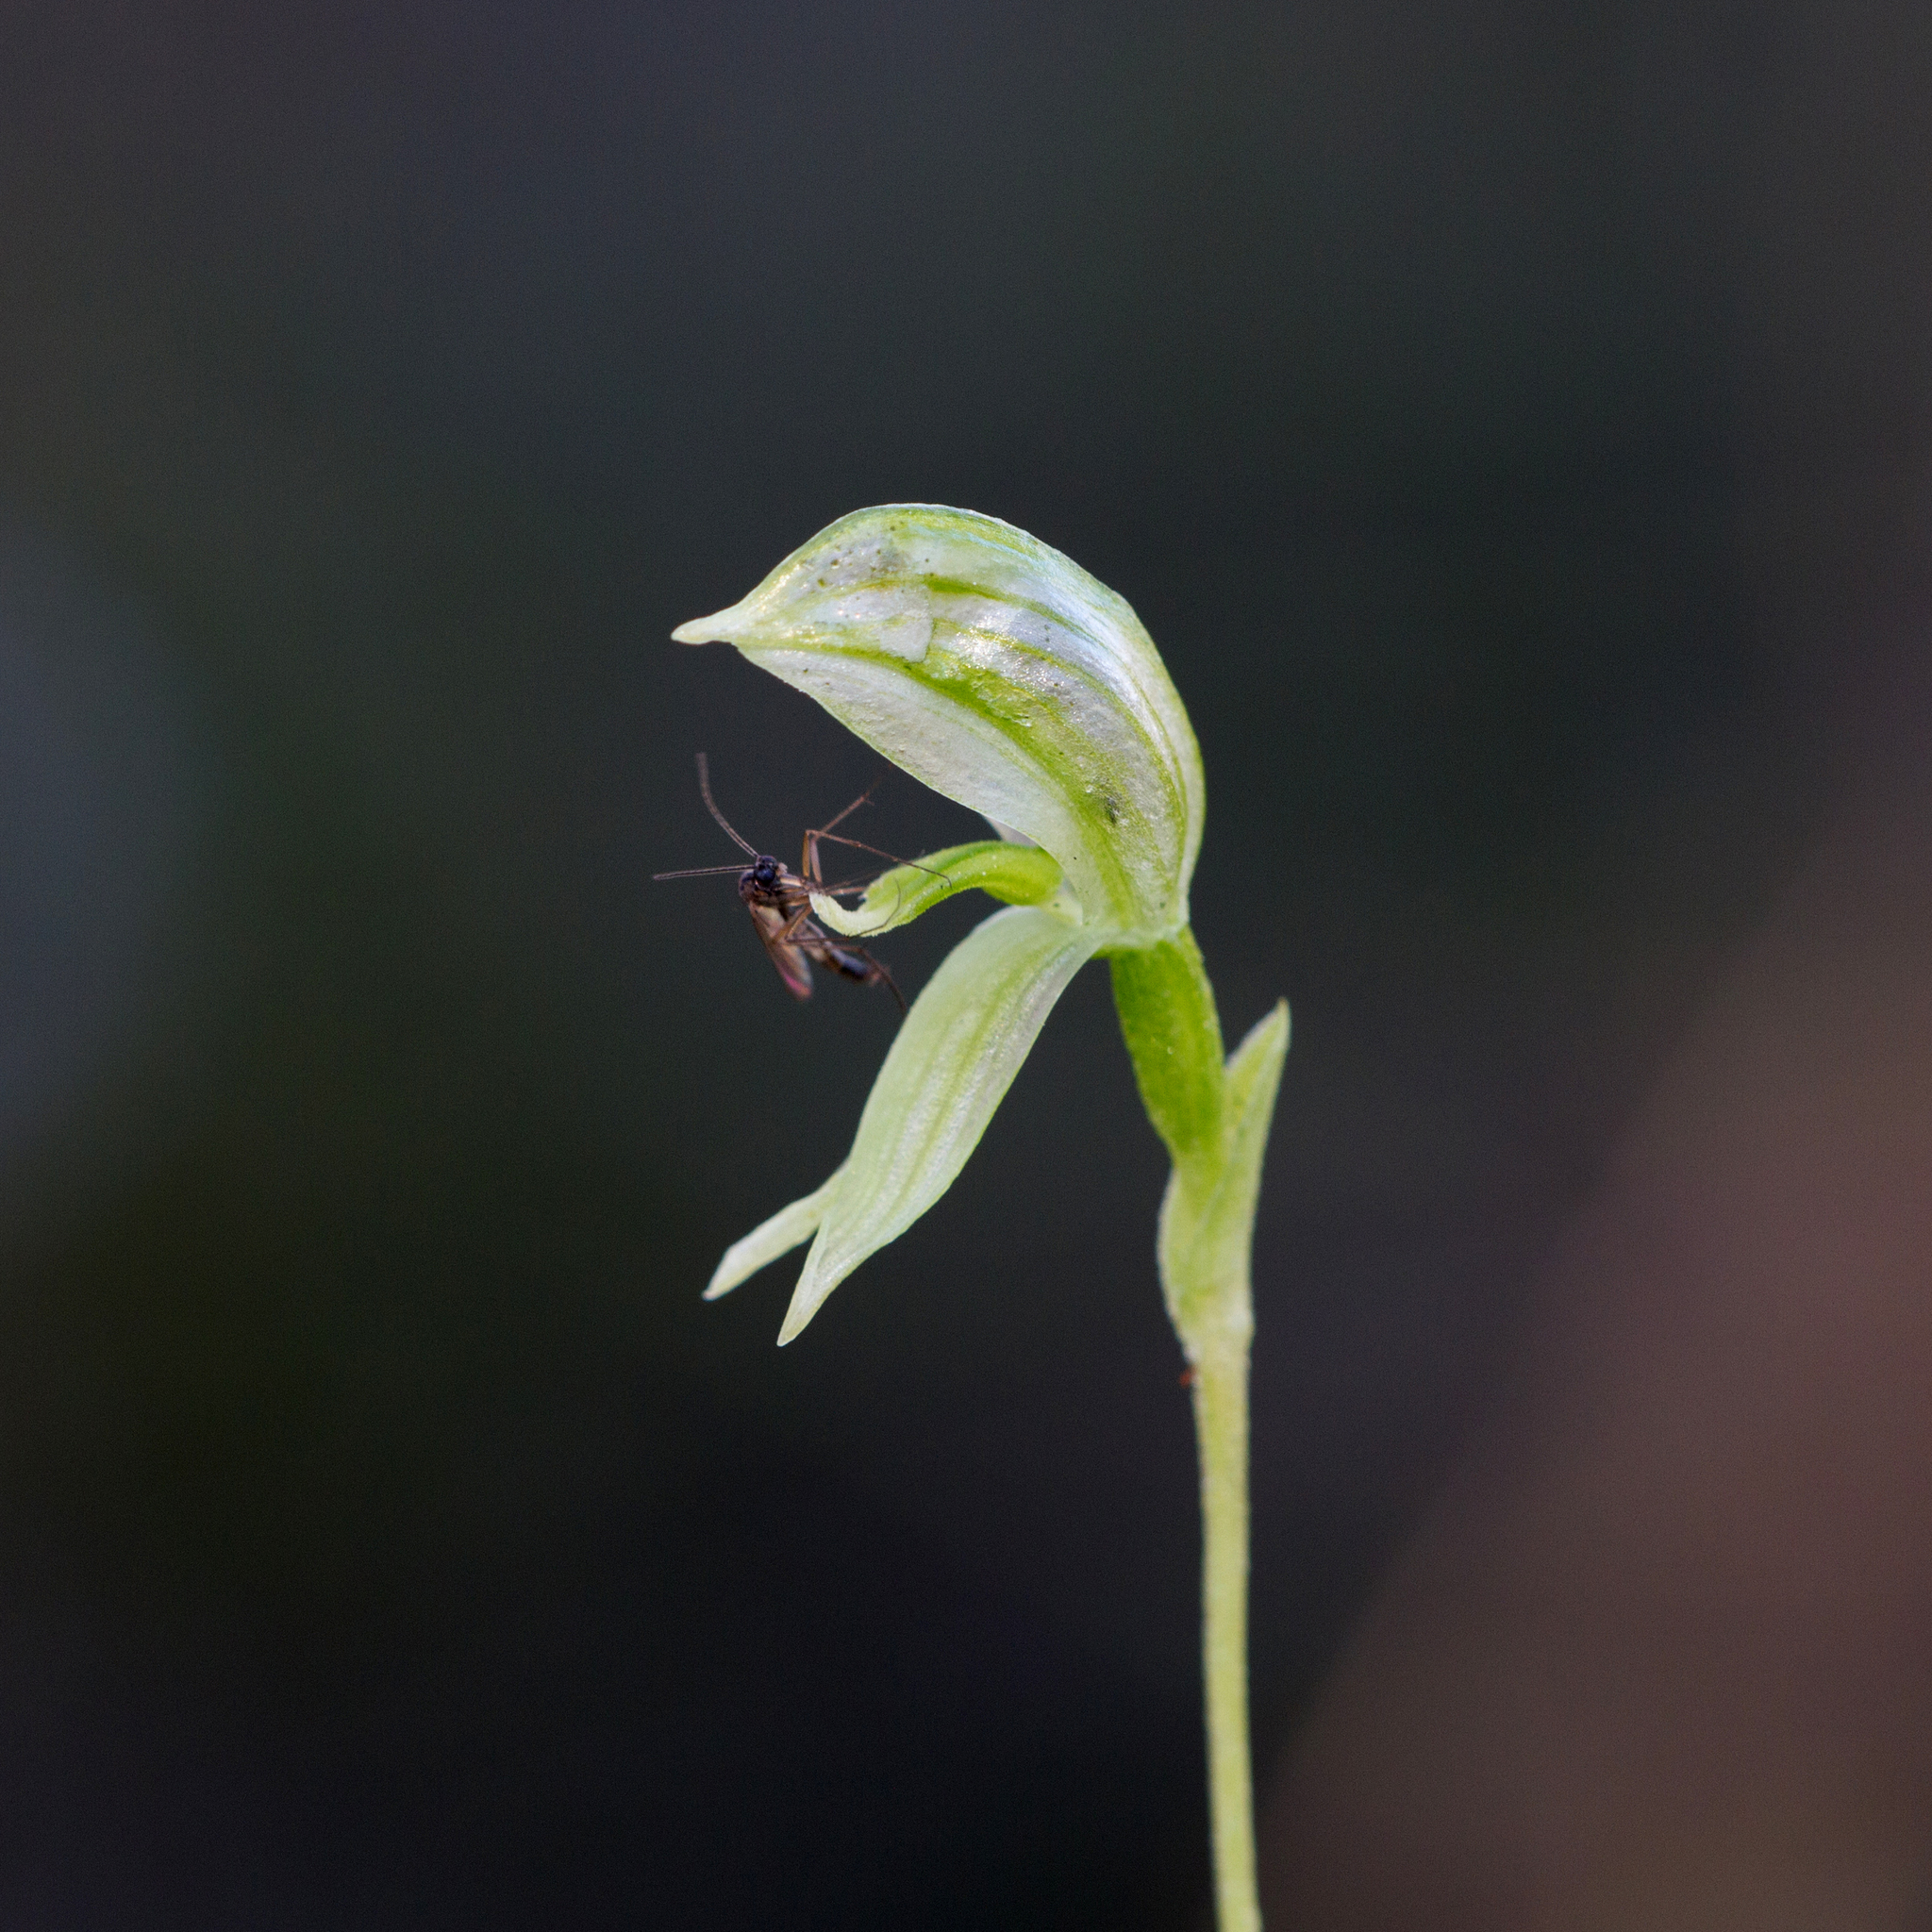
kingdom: Plantae
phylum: Tracheophyta
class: Liliopsida
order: Asparagales
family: Orchidaceae
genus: Pterostylis
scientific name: Pterostylis
